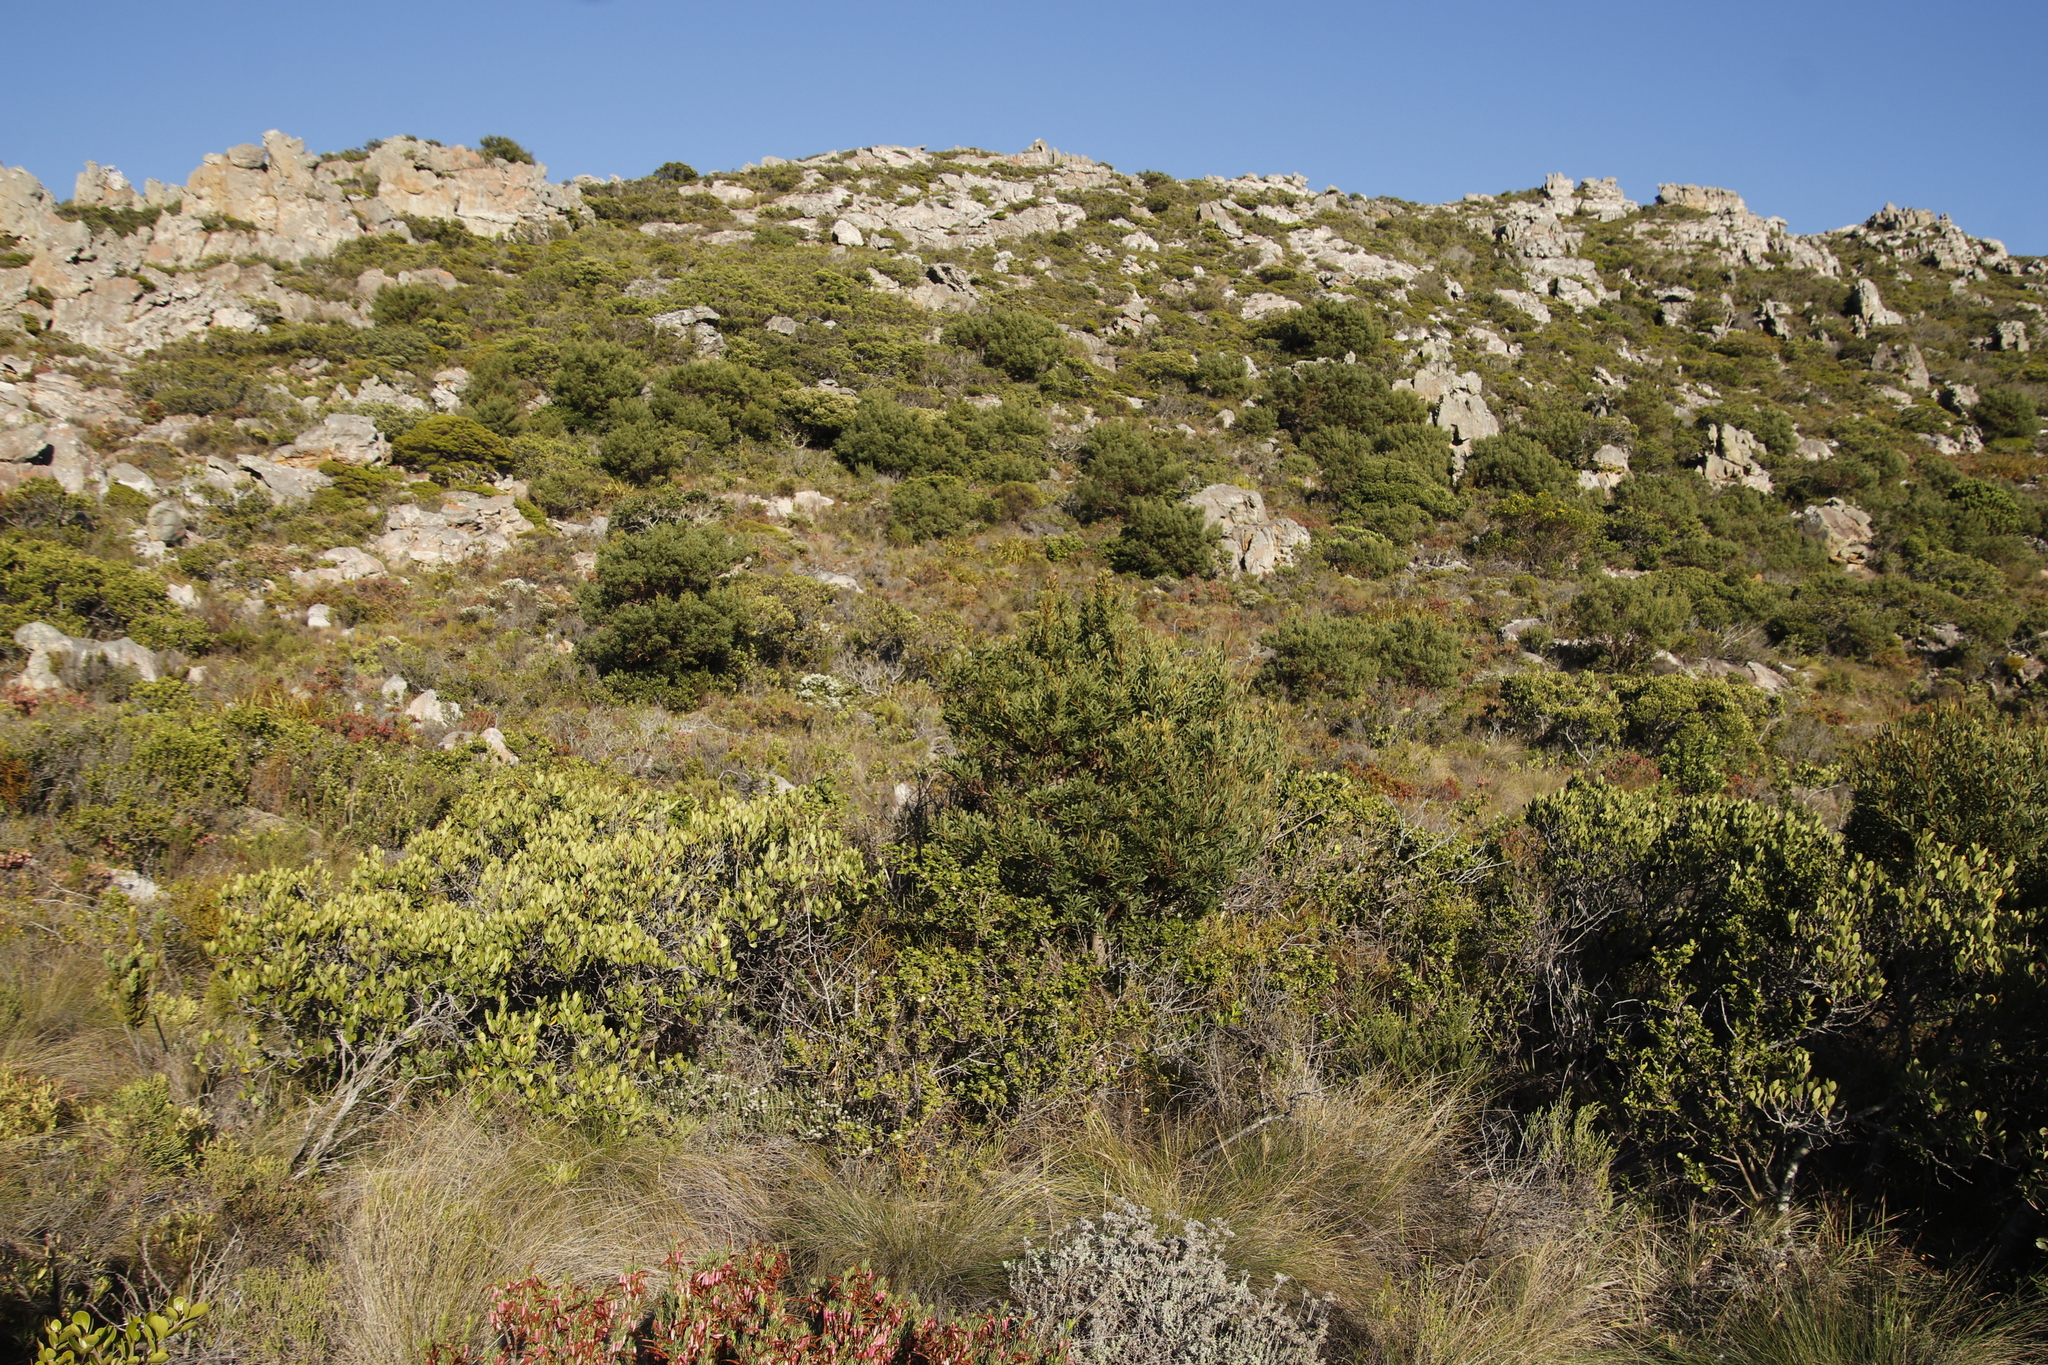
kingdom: Plantae
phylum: Tracheophyta
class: Magnoliopsida
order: Fabales
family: Fabaceae
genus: Acacia
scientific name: Acacia cyclops
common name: Coastal wattle
